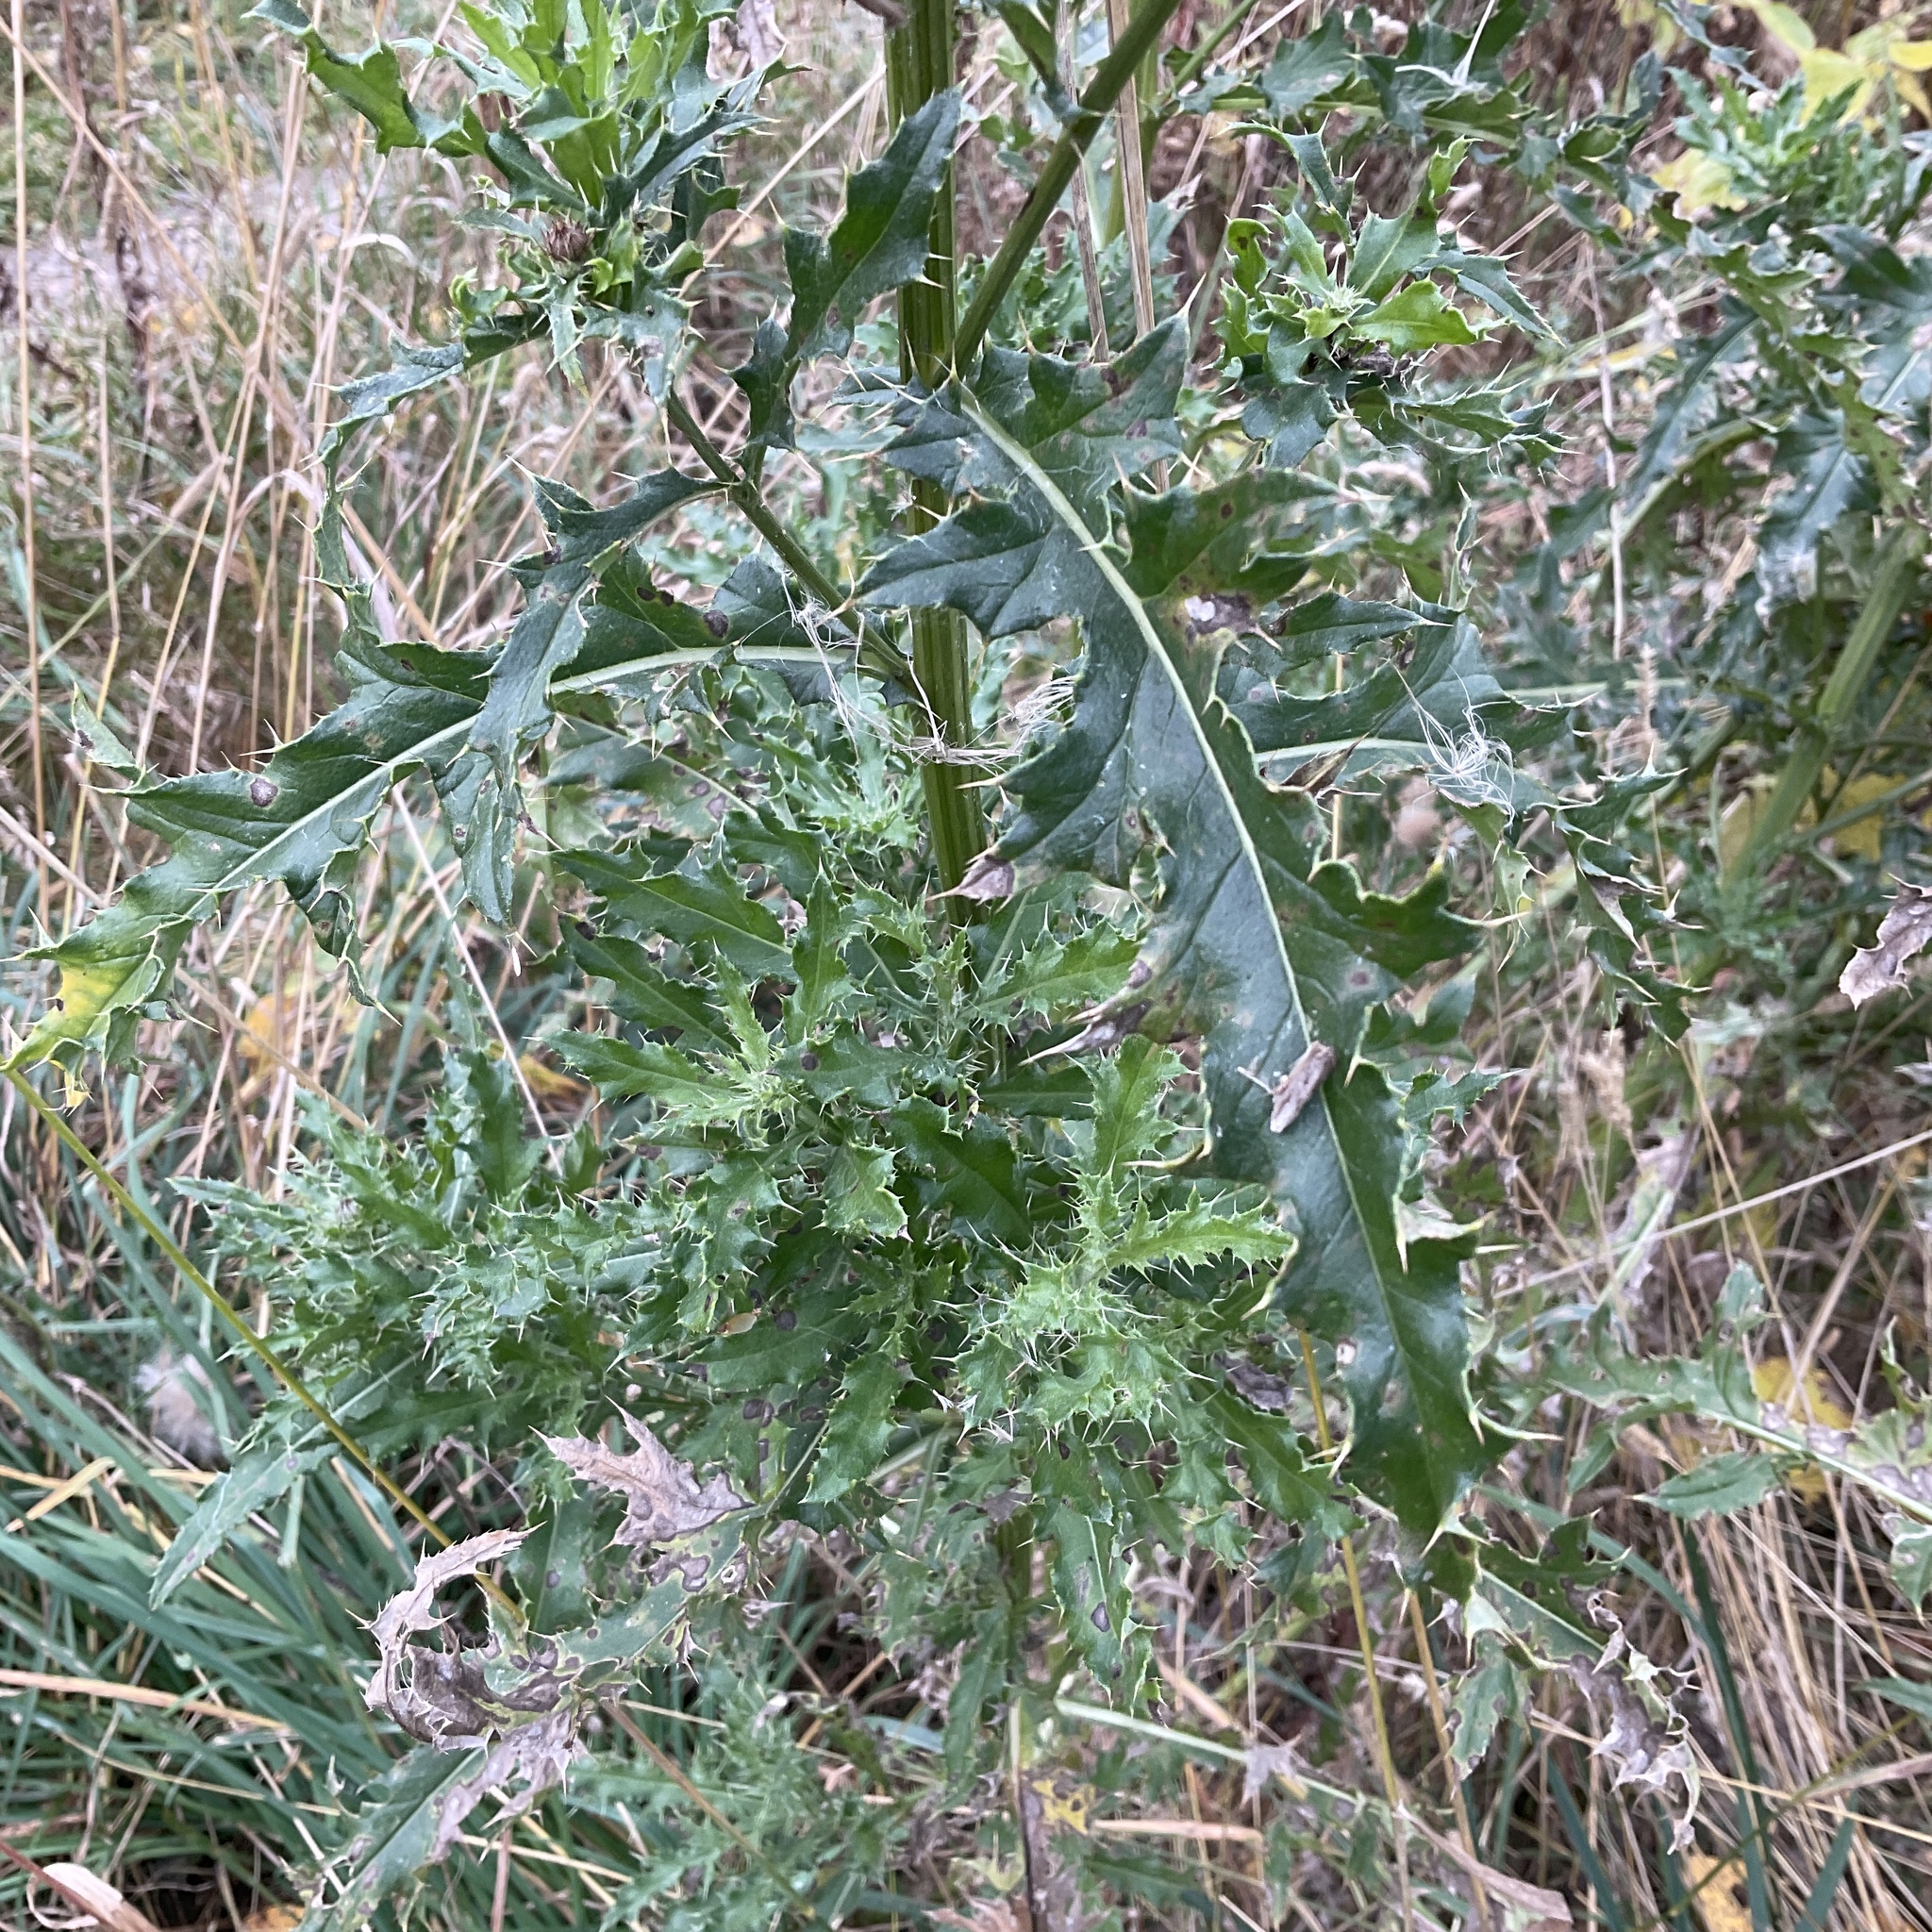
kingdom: Plantae
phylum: Tracheophyta
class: Magnoliopsida
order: Asterales
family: Asteraceae
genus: Cirsium
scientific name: Cirsium arvense
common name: Creeping thistle
